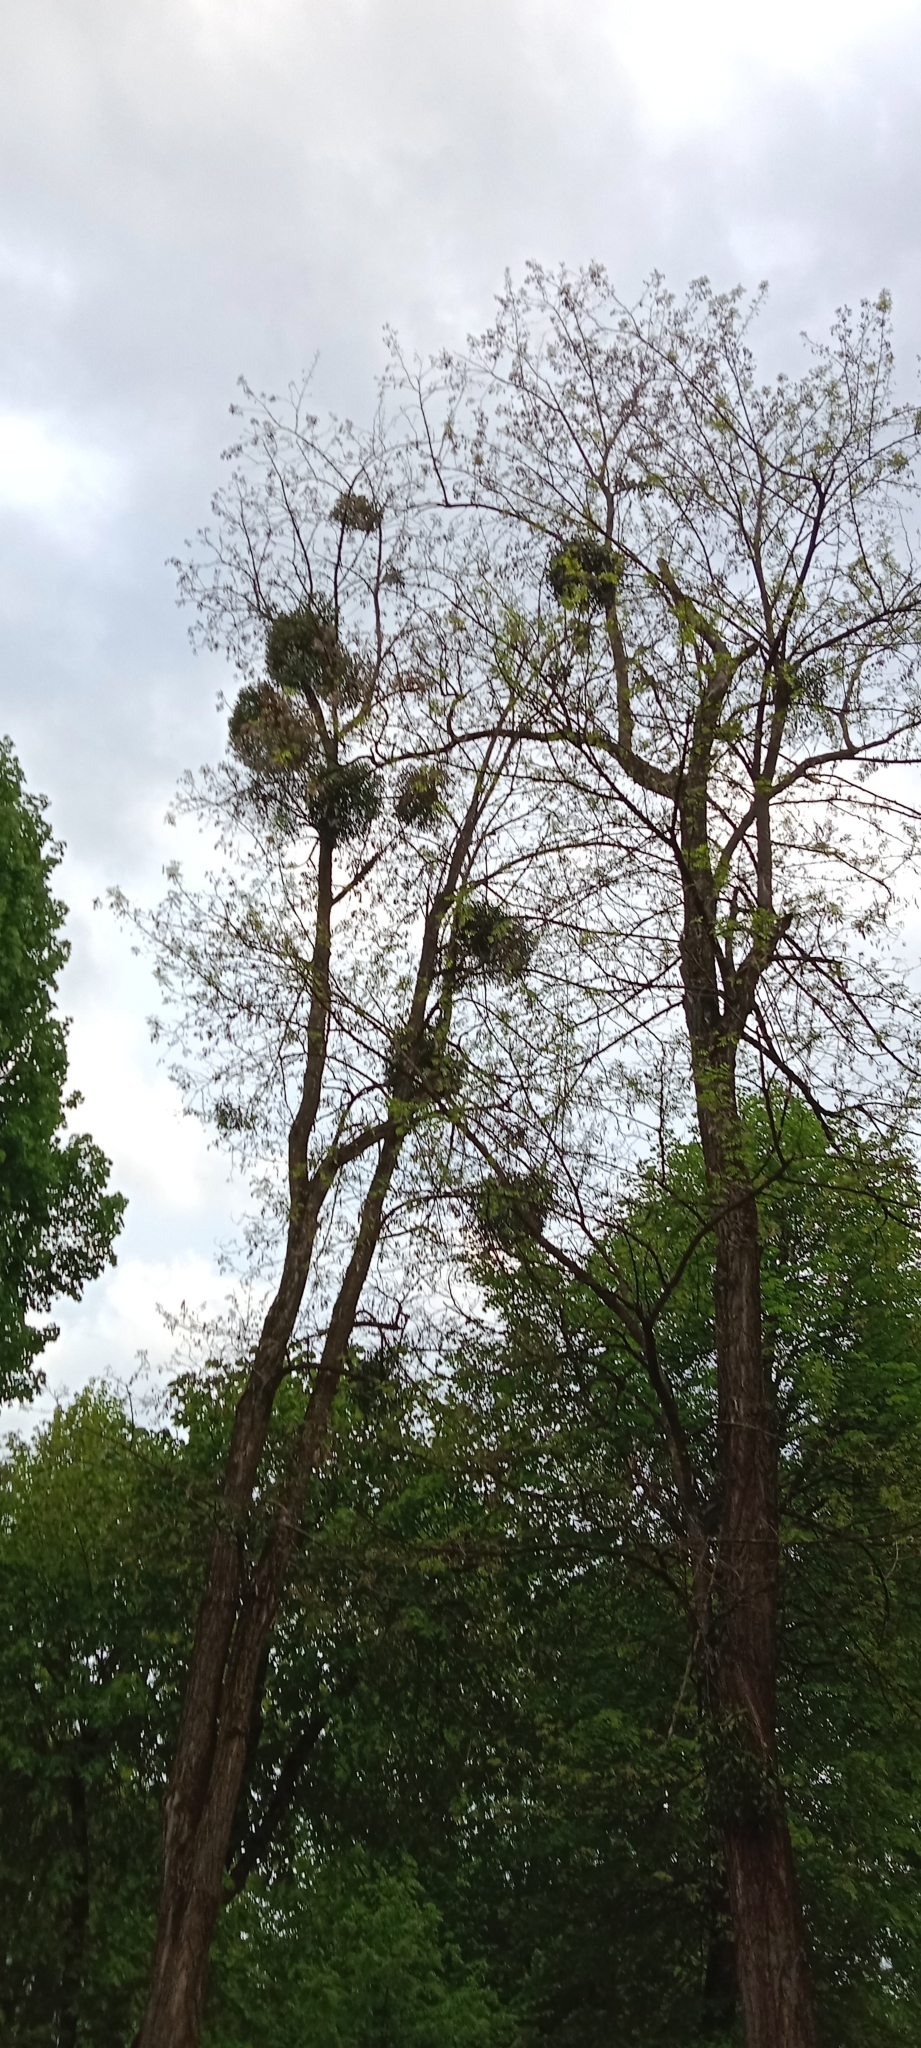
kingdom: Plantae
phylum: Tracheophyta
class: Magnoliopsida
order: Santalales
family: Viscaceae
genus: Viscum
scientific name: Viscum album
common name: Mistletoe
